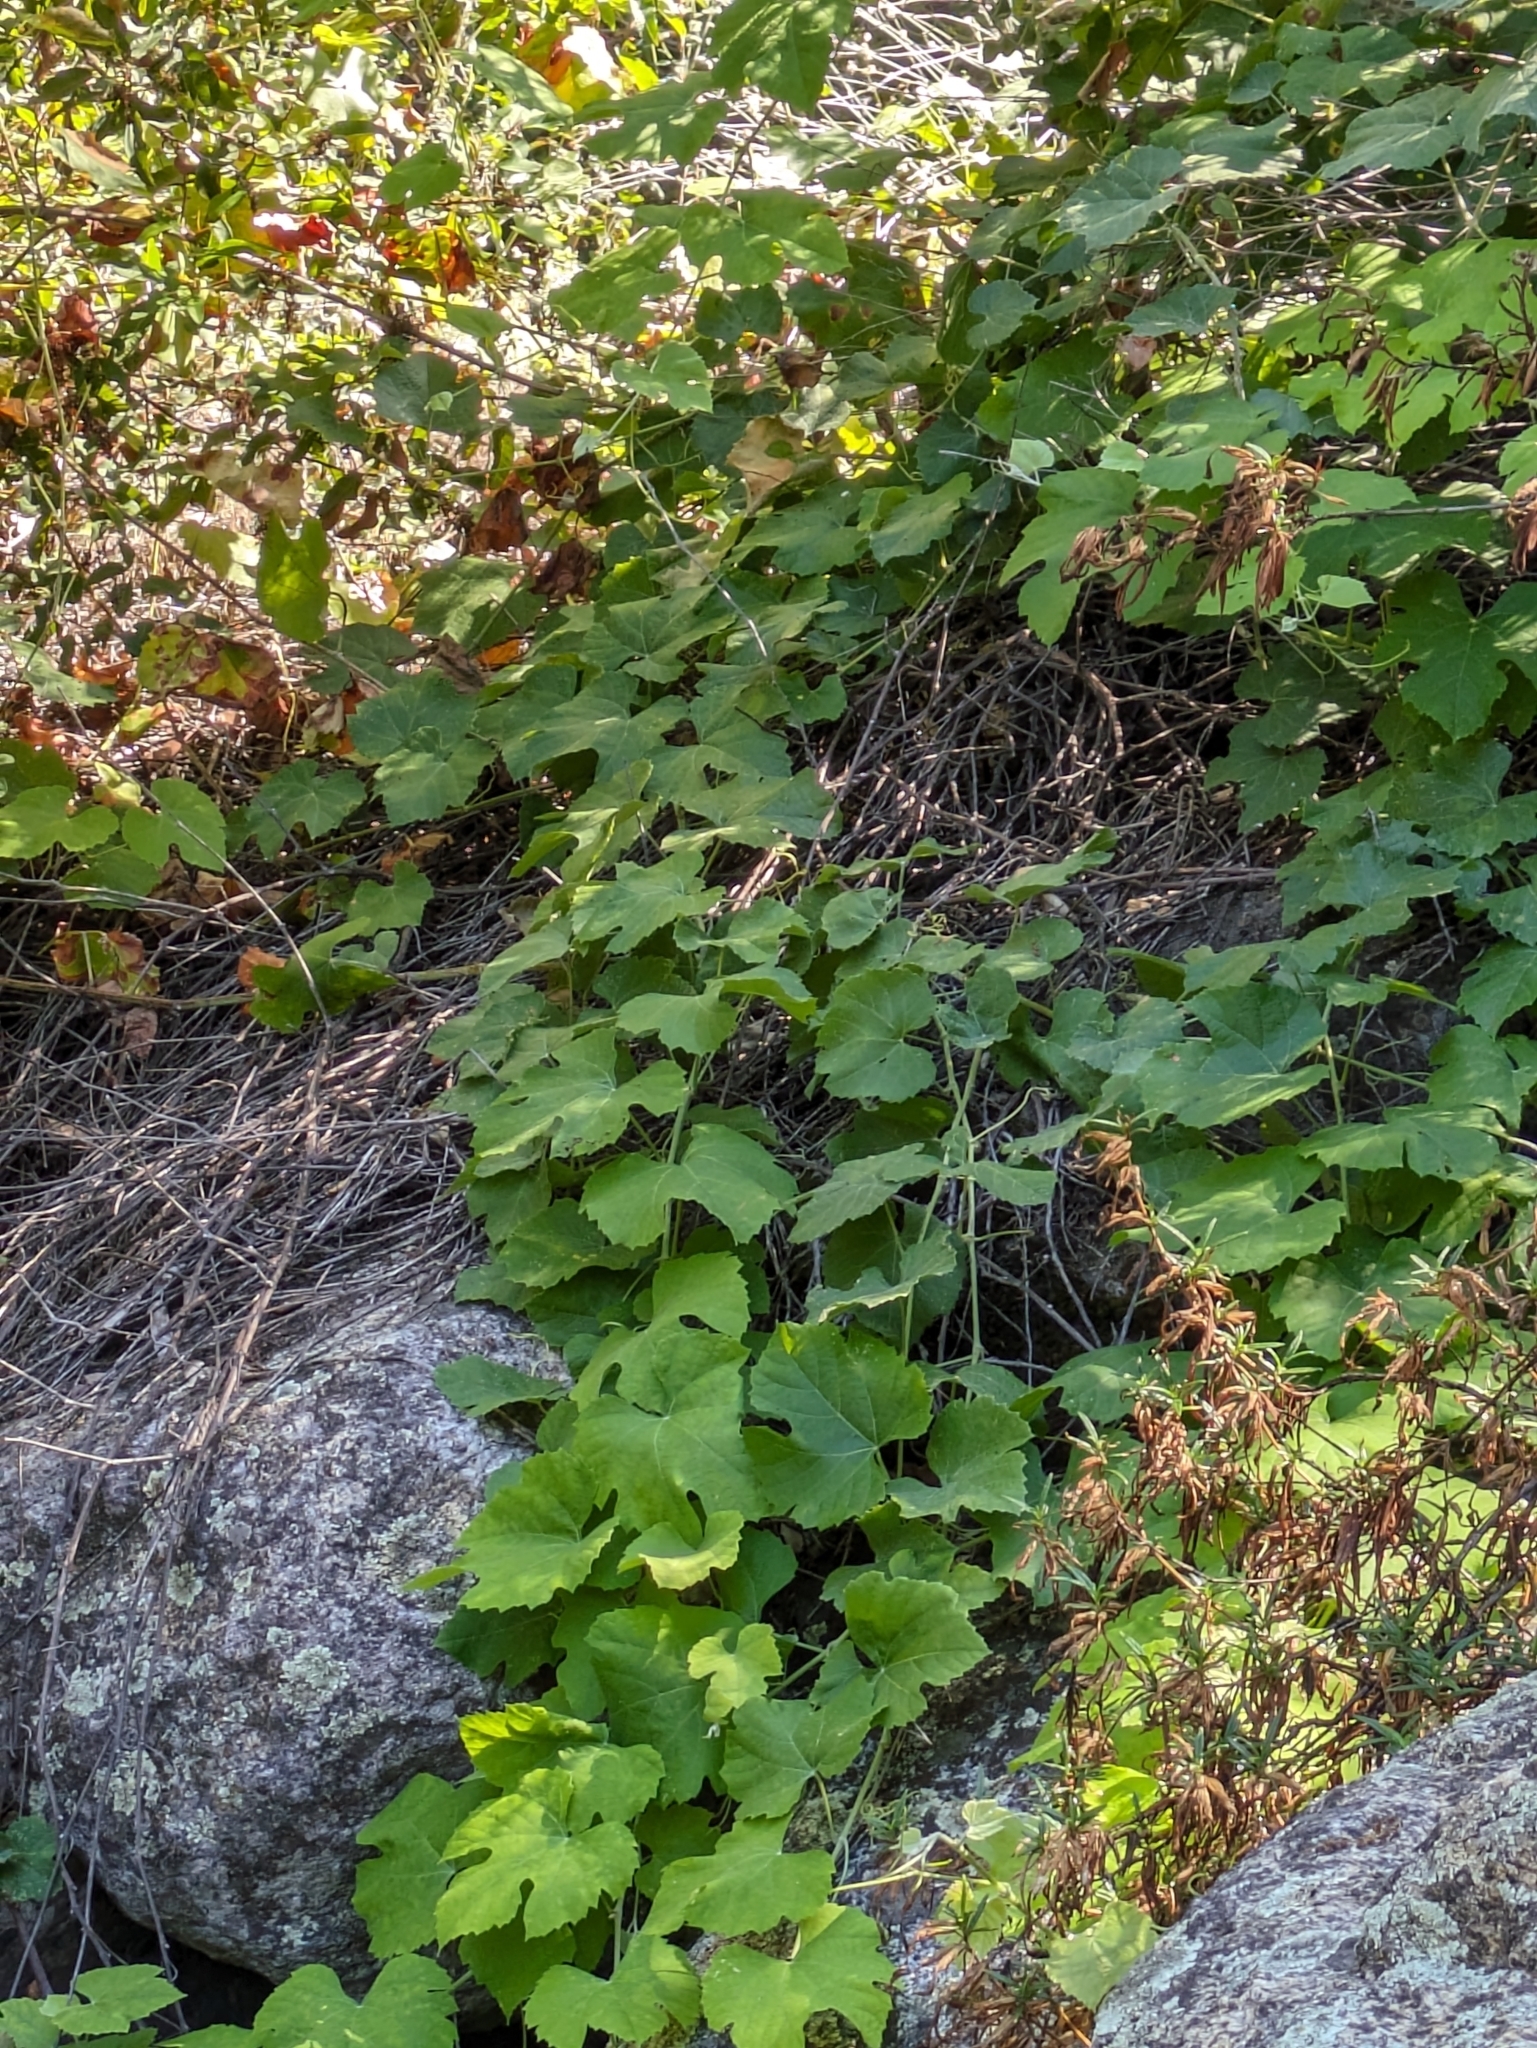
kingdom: Plantae
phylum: Tracheophyta
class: Magnoliopsida
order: Vitales
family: Vitaceae
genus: Vitis
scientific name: Vitis girdiana
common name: Desert wild grape
